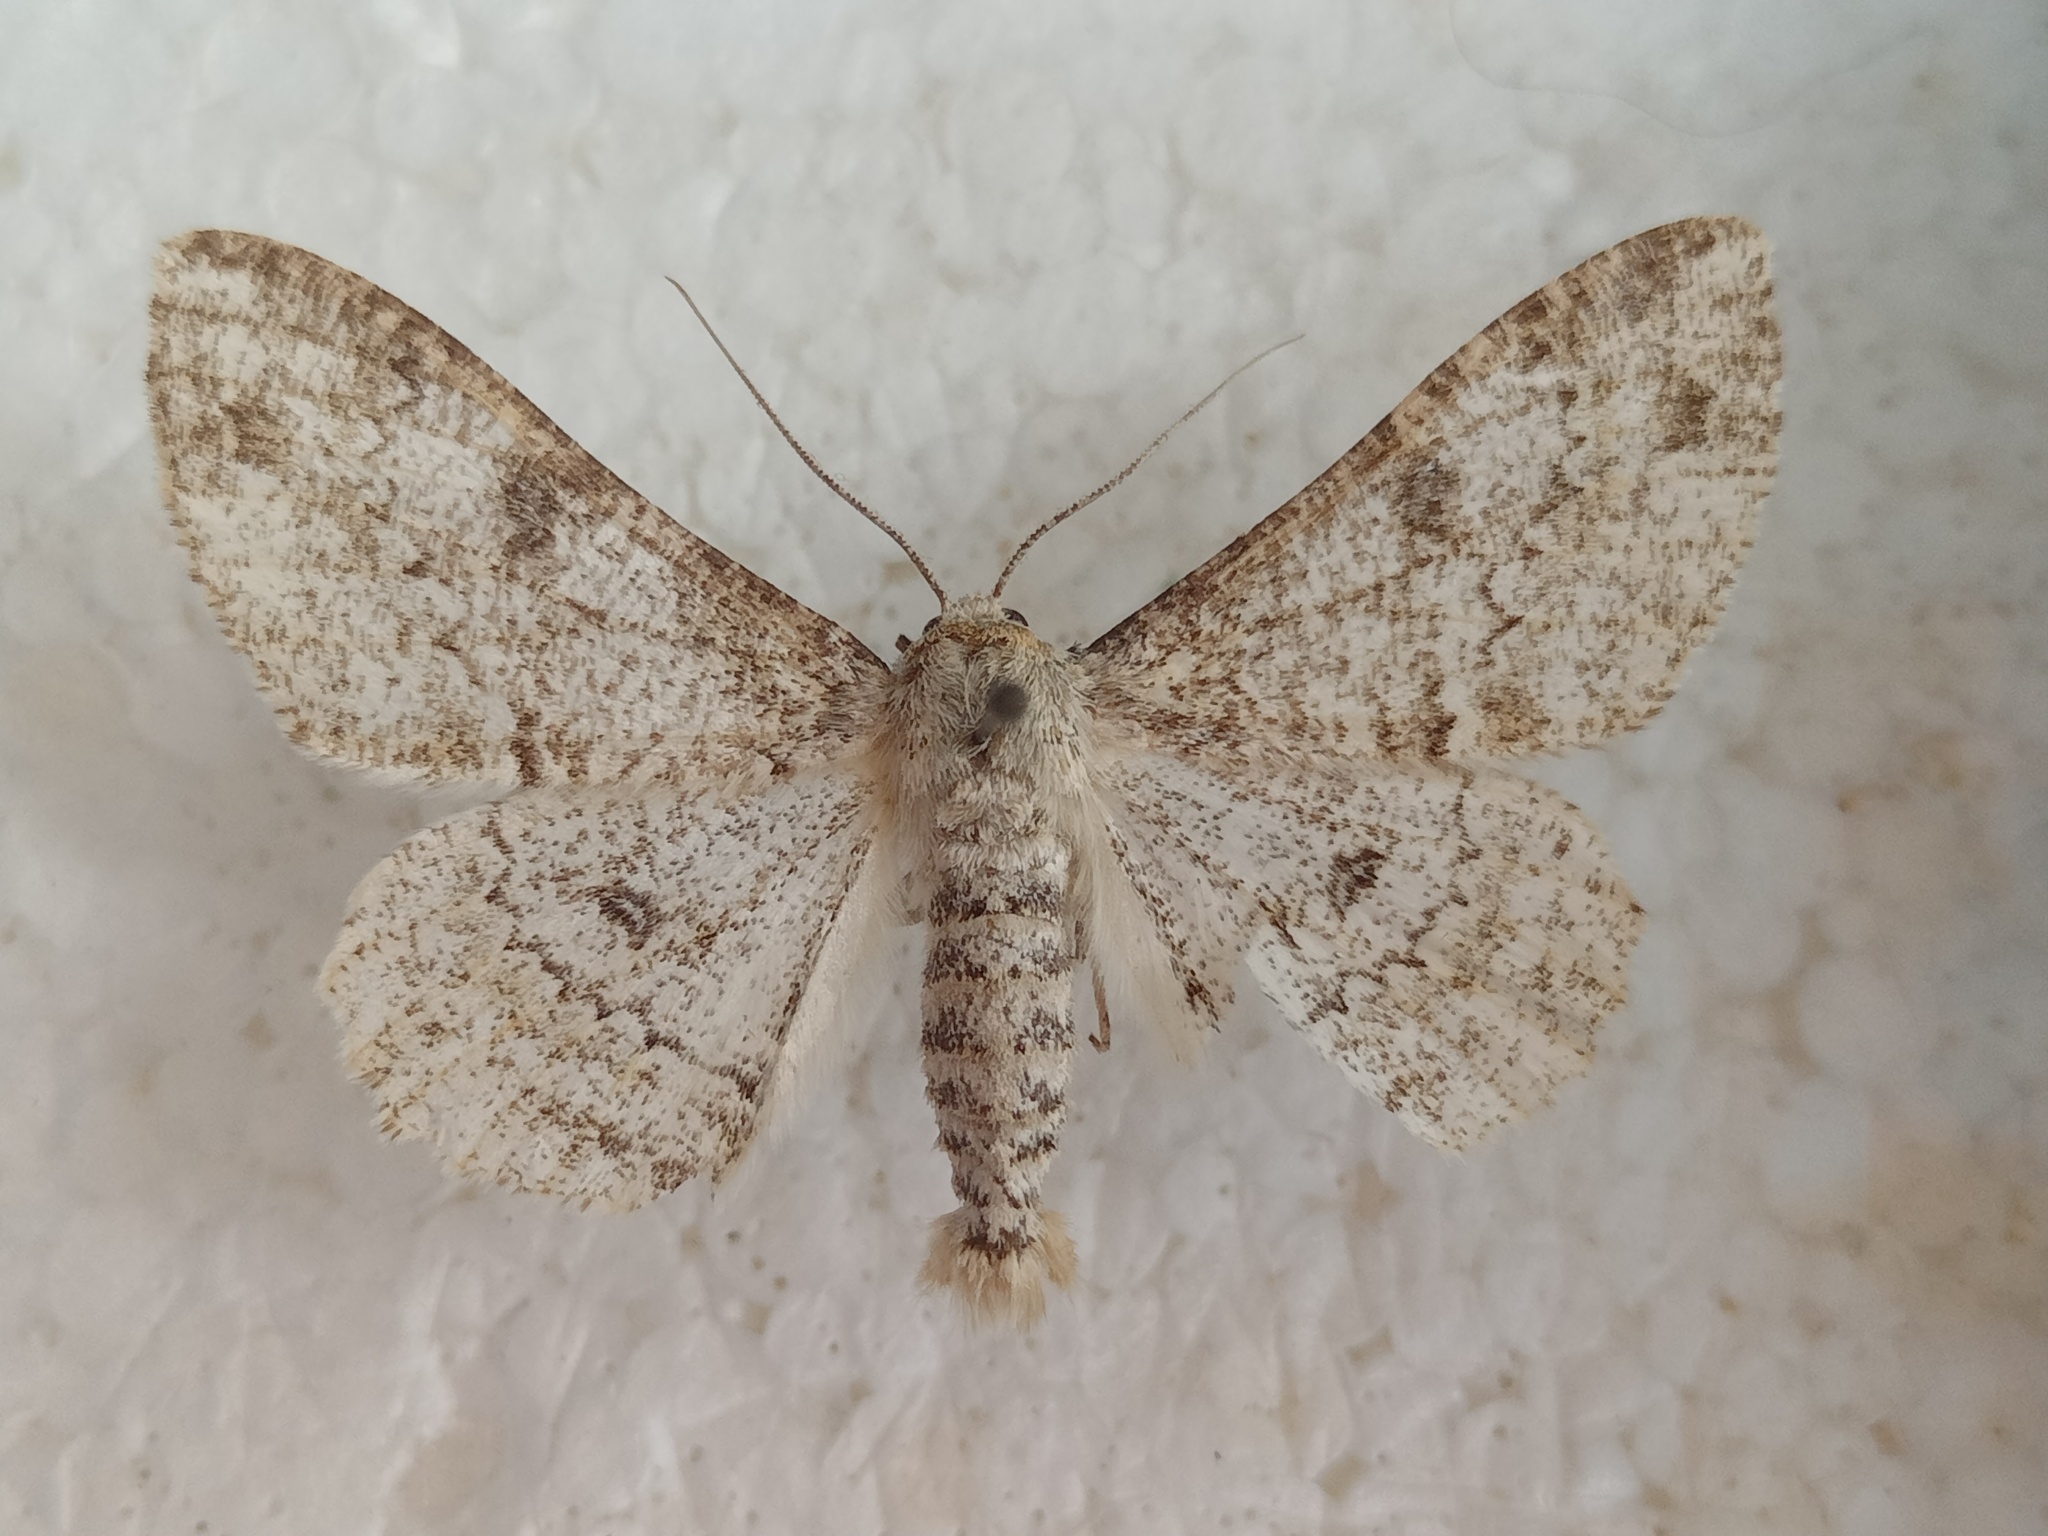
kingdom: Animalia
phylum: Arthropoda
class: Insecta
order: Lepidoptera
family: Geometridae
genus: Ascotis
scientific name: Ascotis selenaria
